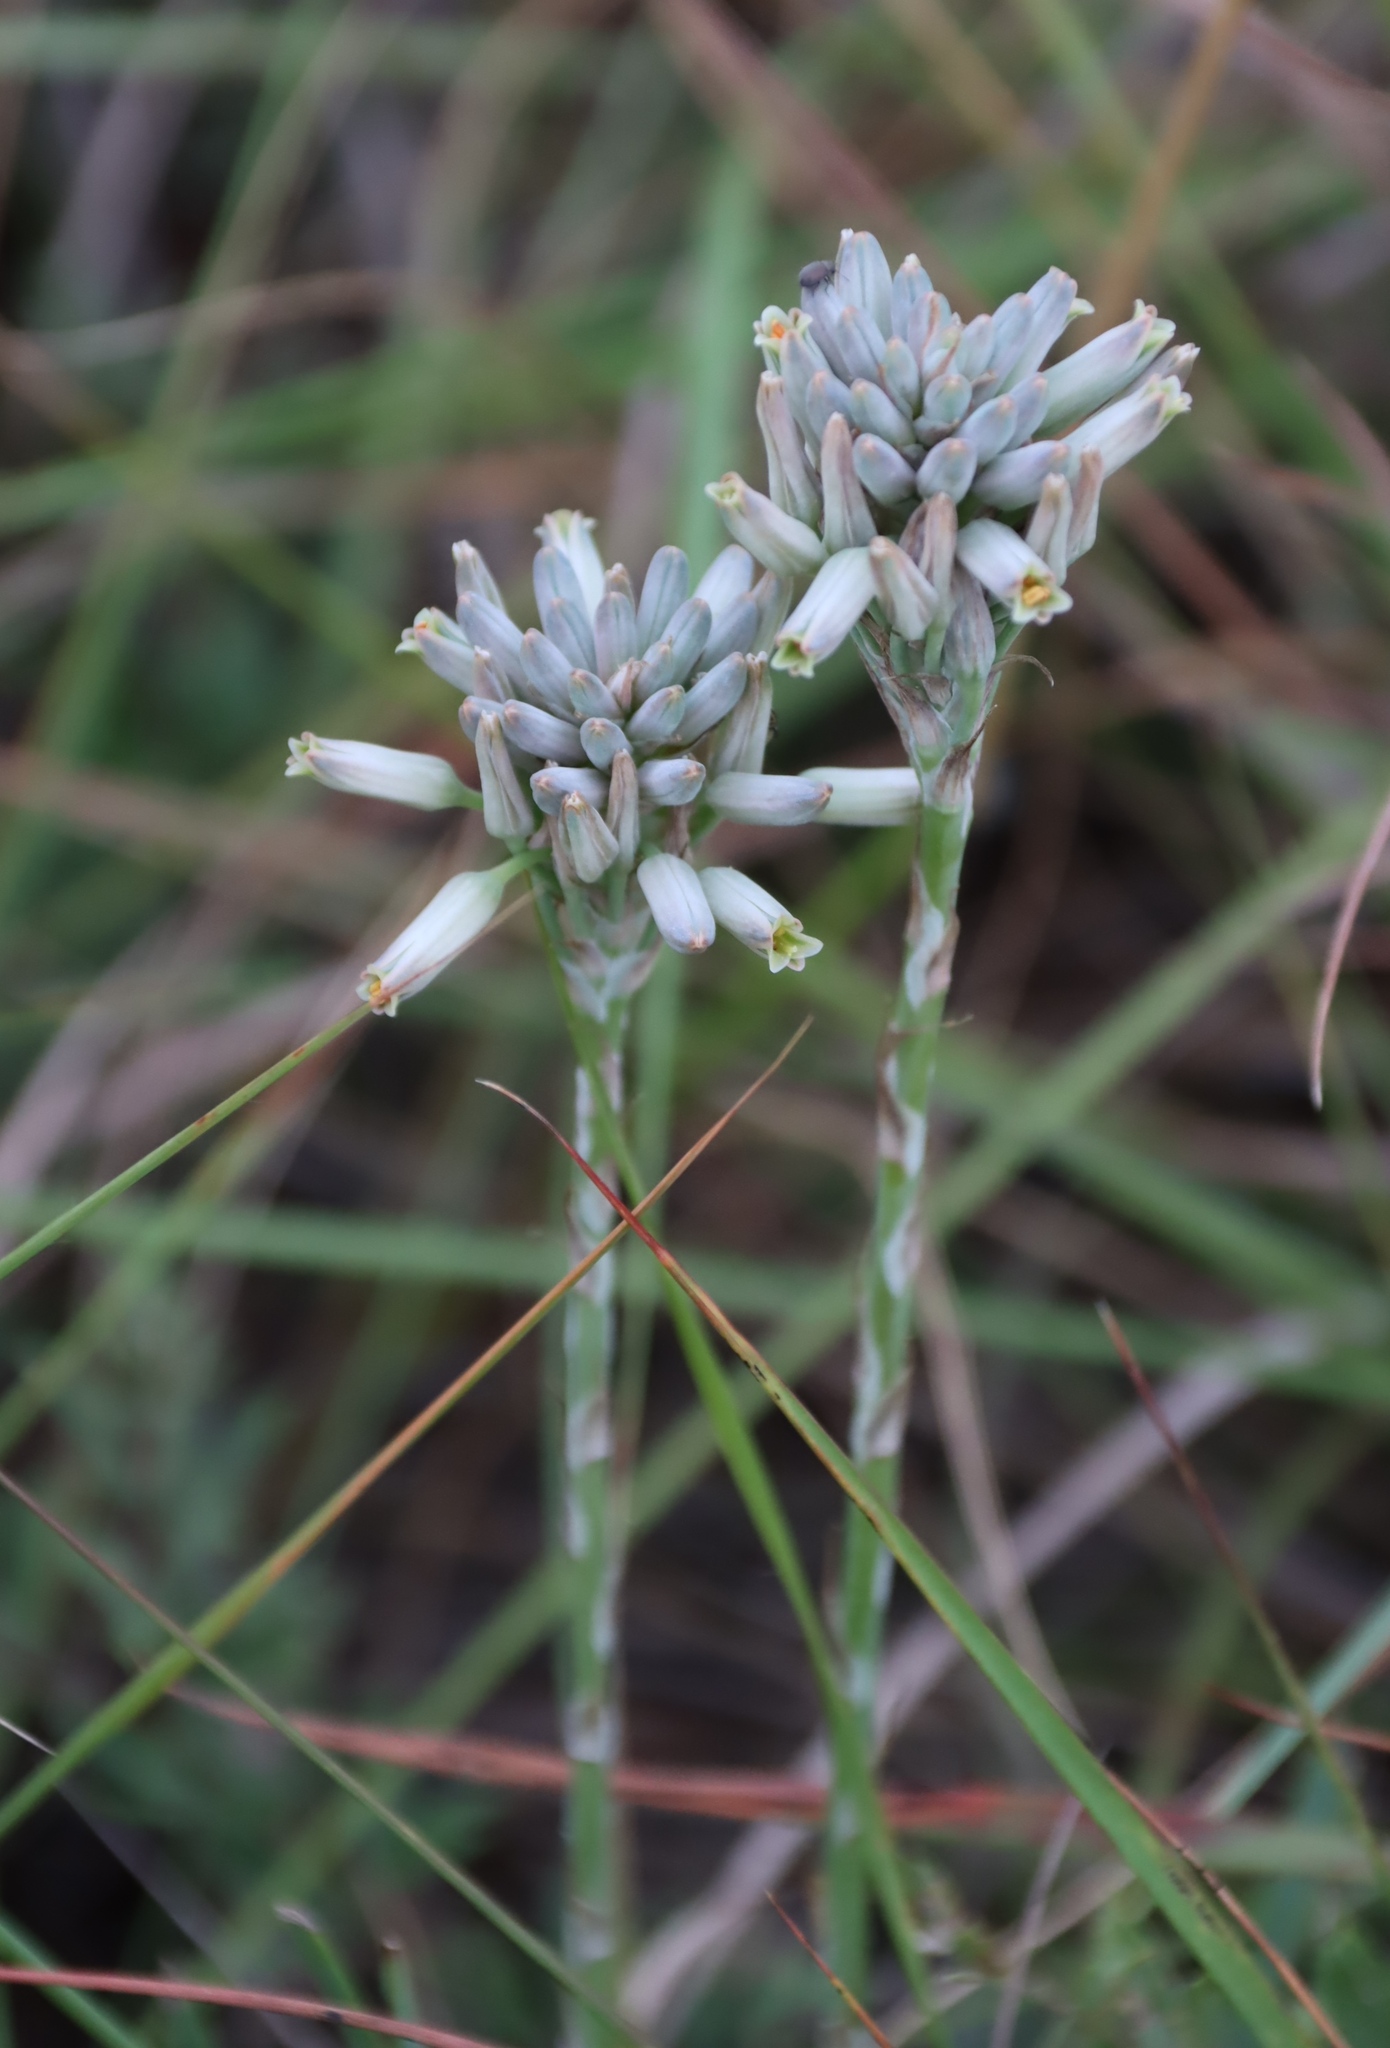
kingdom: Plantae
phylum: Tracheophyta
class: Liliopsida
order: Asparagales
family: Asphodelaceae
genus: Aloe
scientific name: Aloe minima
